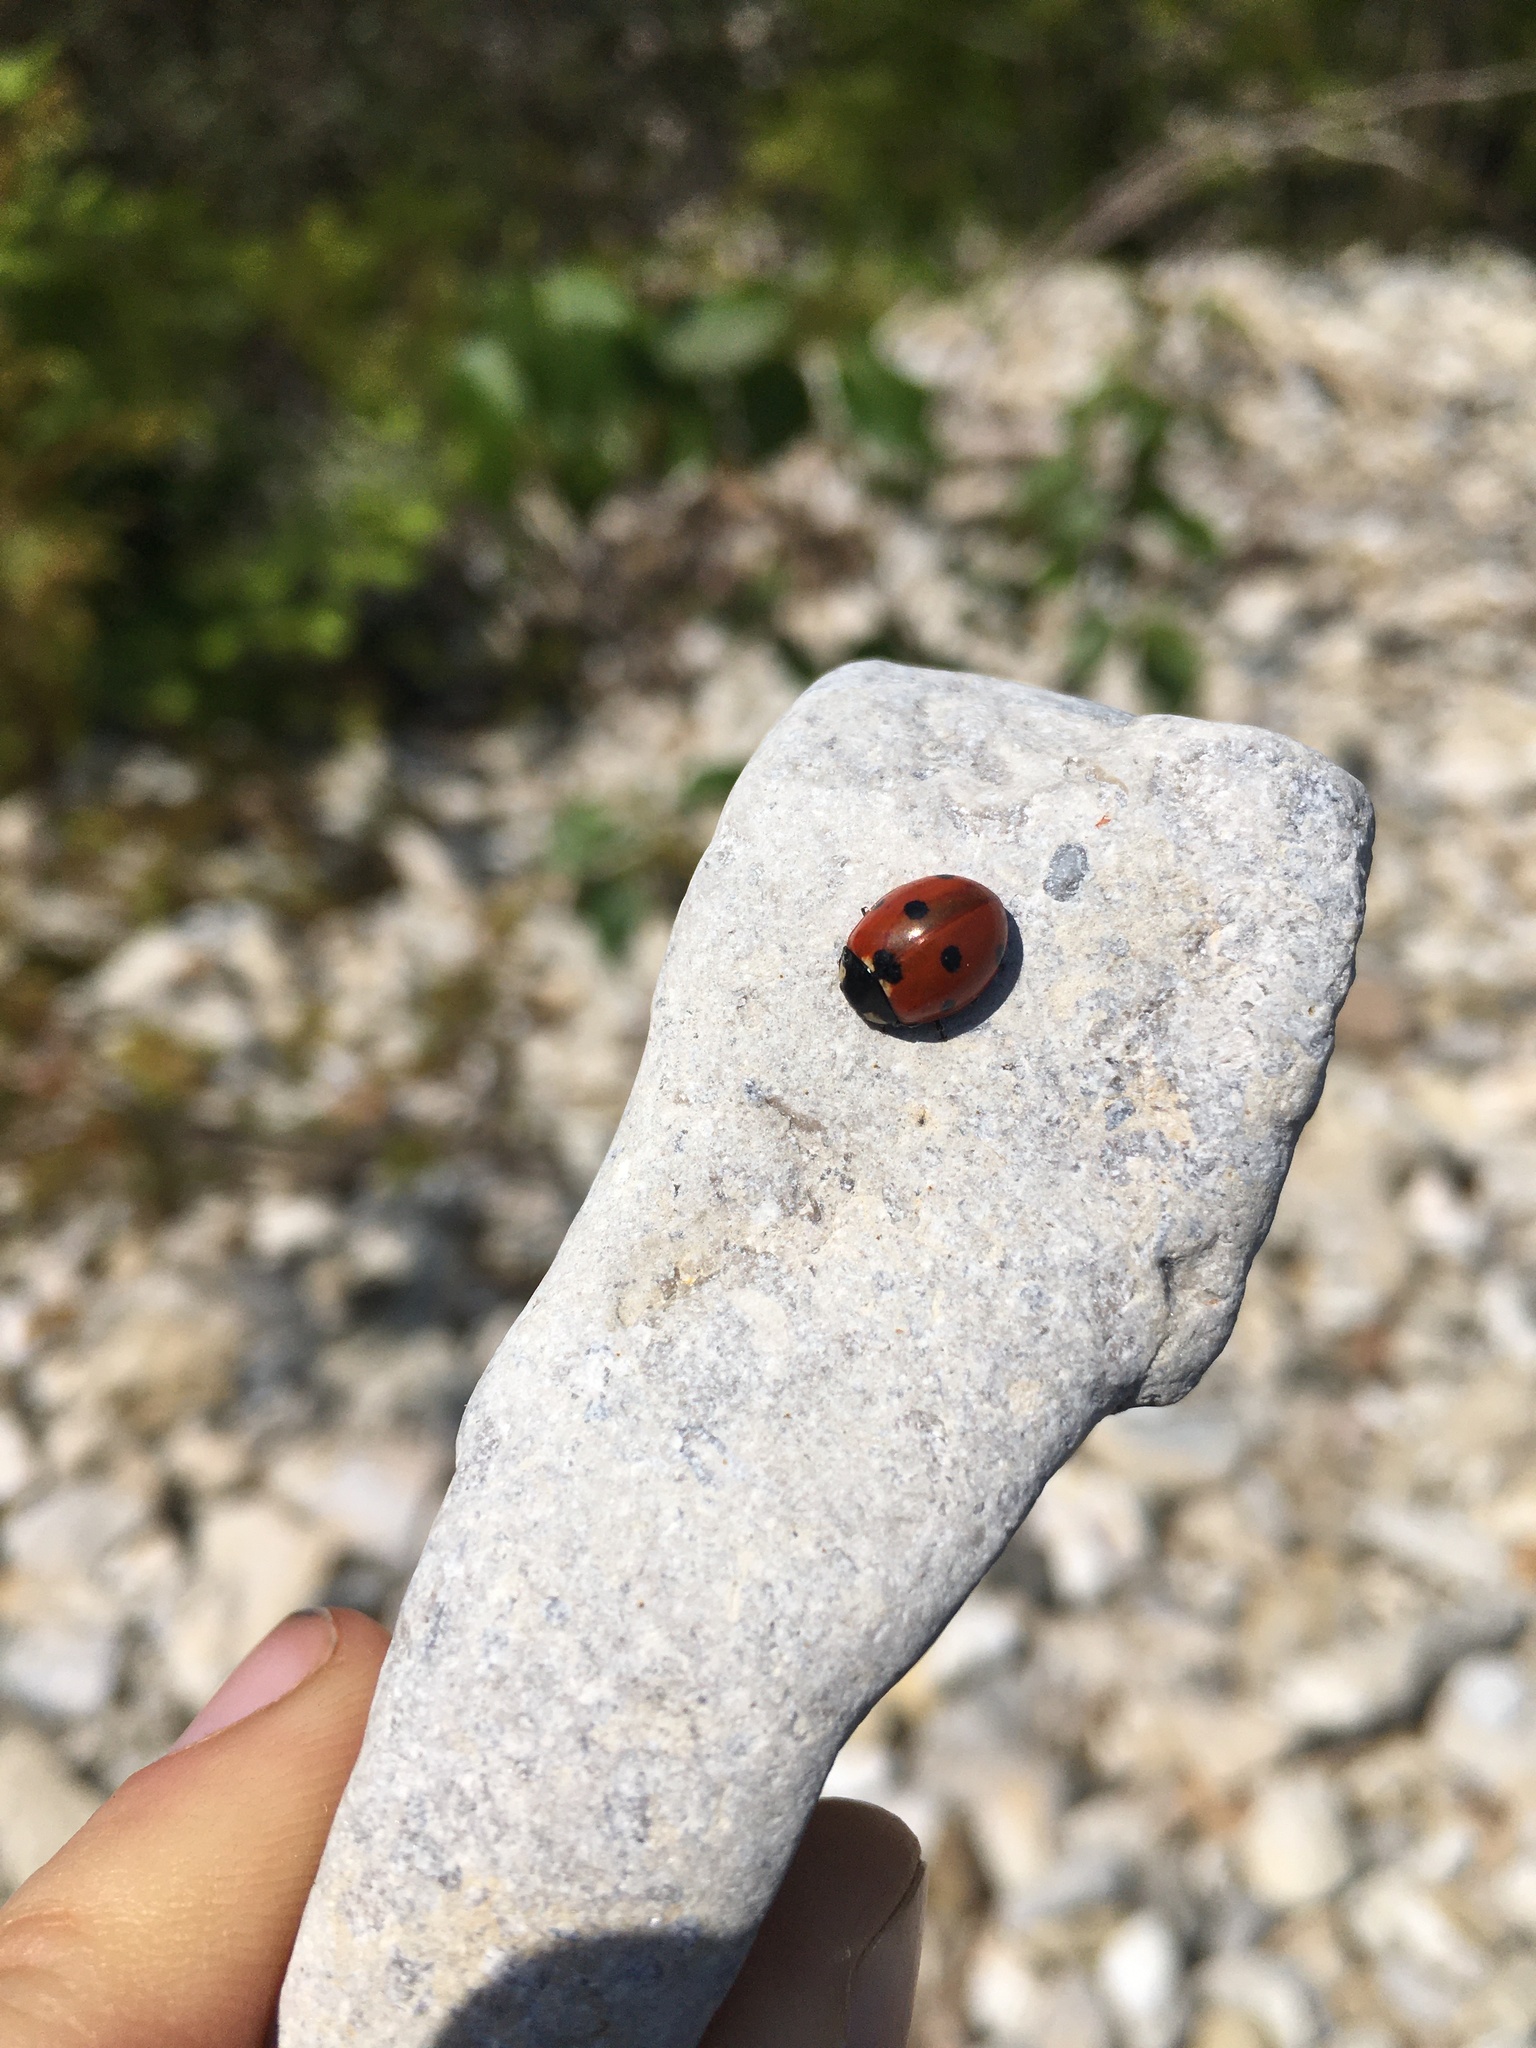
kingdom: Animalia
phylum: Arthropoda
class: Insecta
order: Coleoptera
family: Coccinellidae
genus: Coccinella
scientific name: Coccinella septempunctata
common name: Sevenspotted lady beetle
